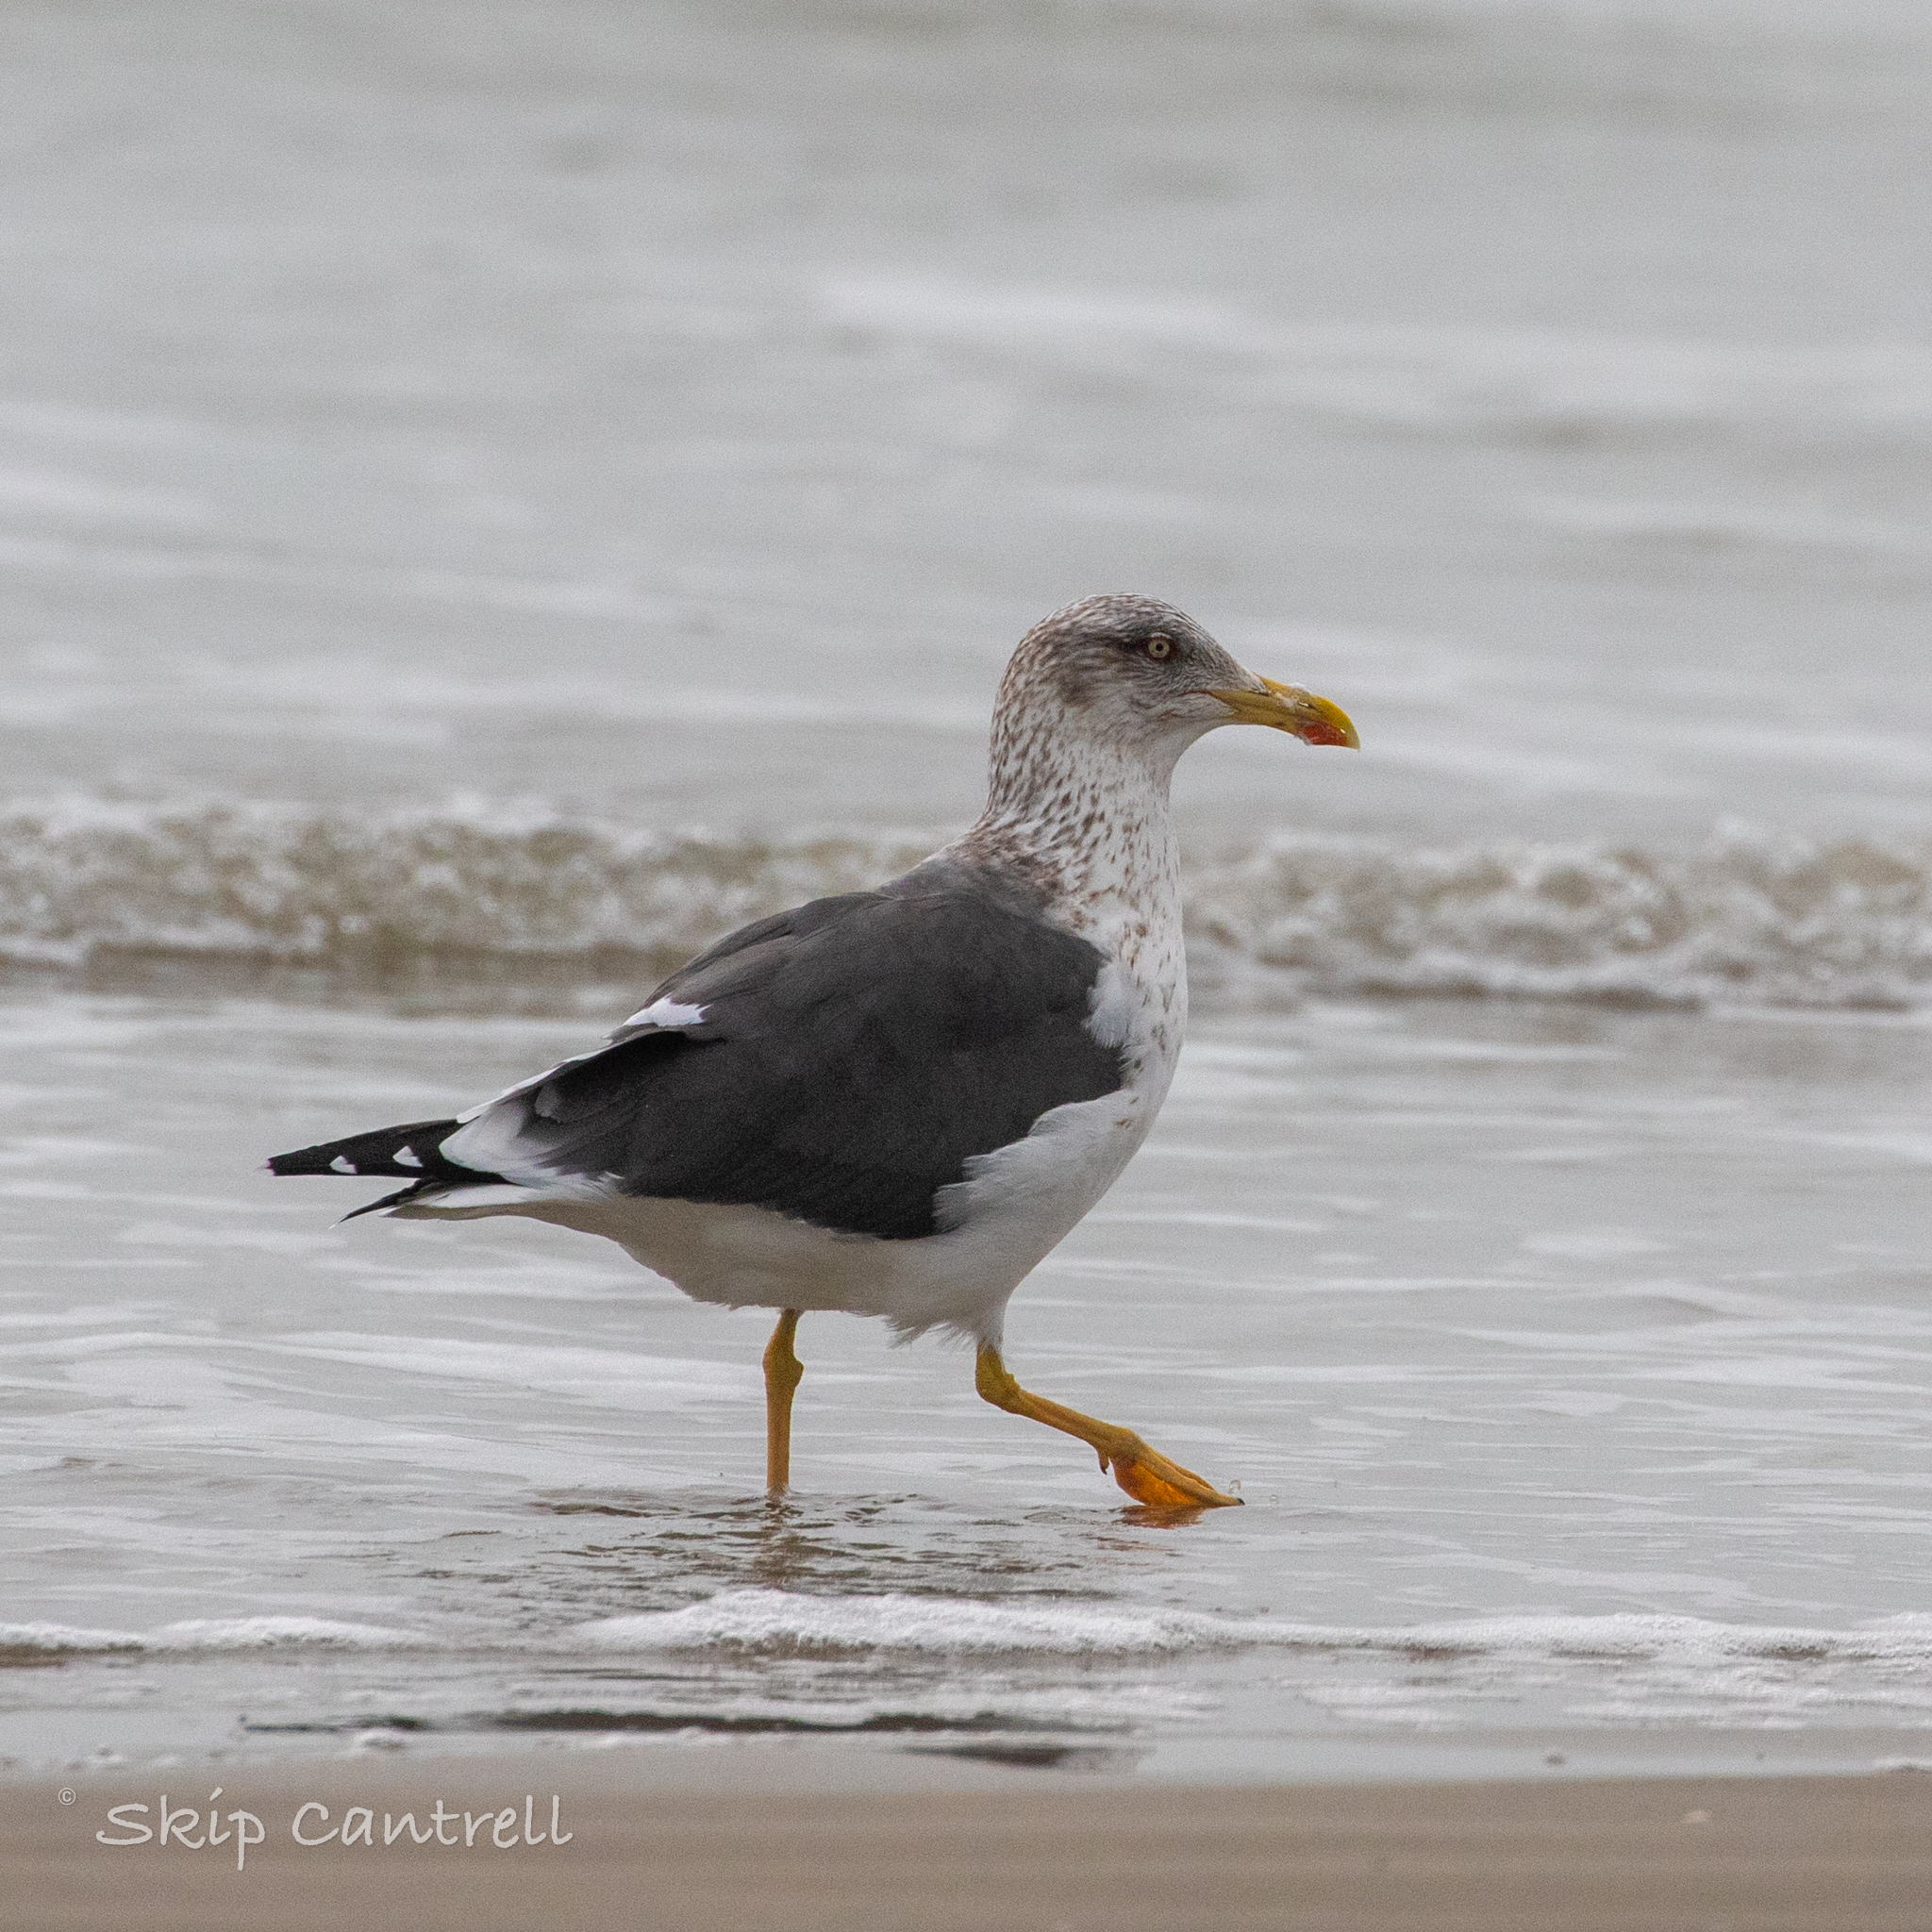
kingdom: Animalia
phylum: Chordata
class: Aves
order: Charadriiformes
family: Laridae
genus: Larus
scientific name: Larus fuscus
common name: Lesser black-backed gull
